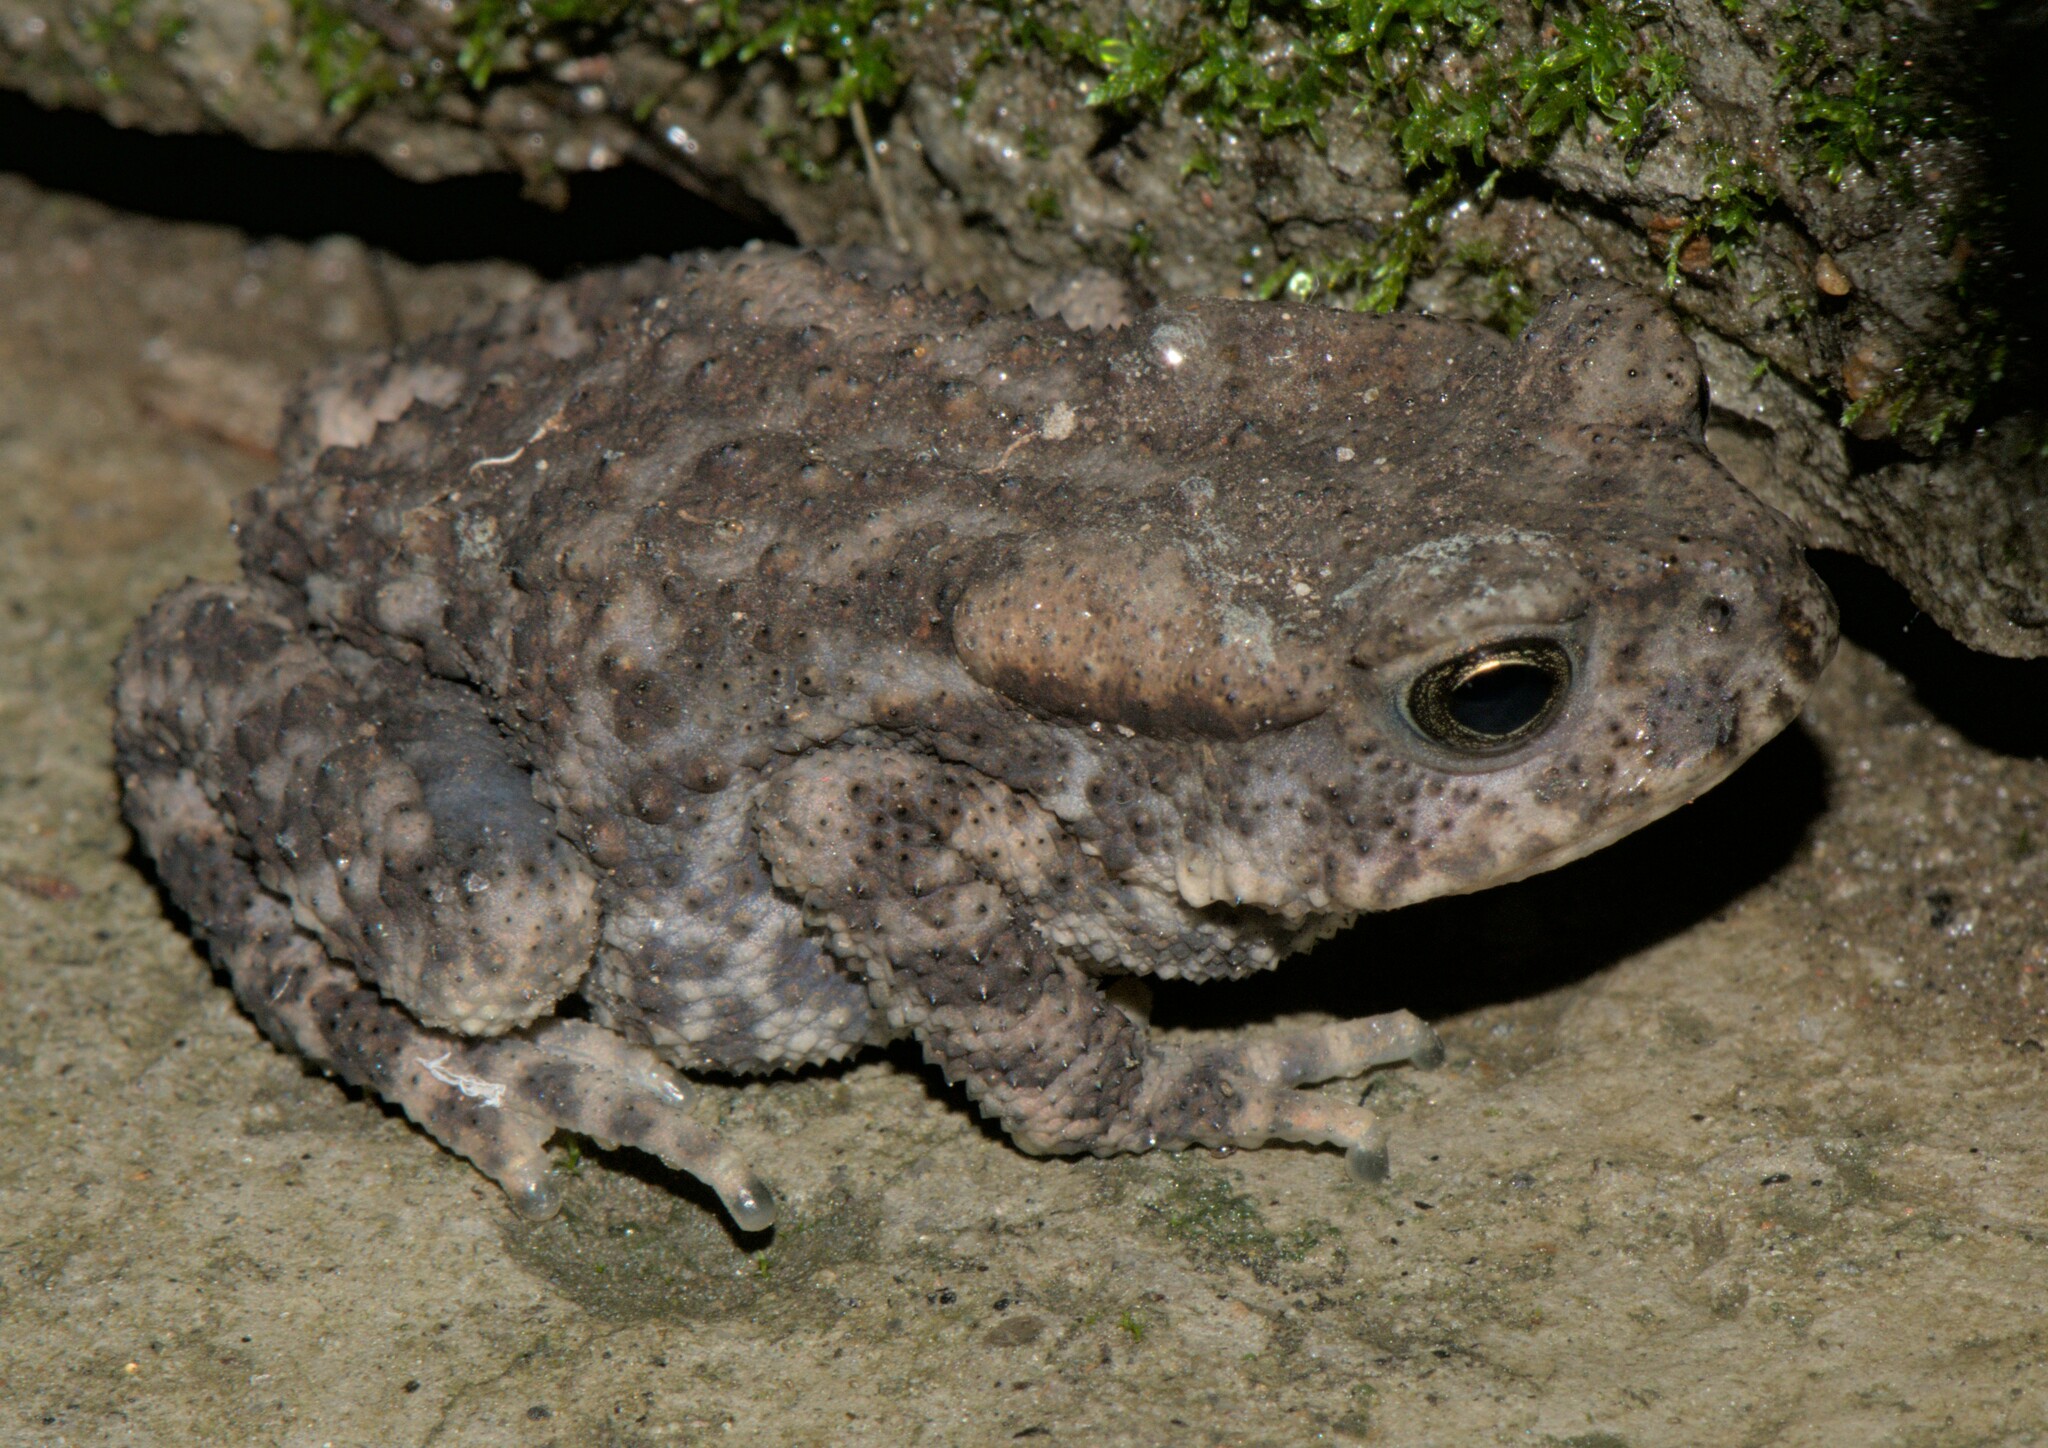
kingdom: Animalia
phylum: Chordata
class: Amphibia
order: Anura
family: Bufonidae
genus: Duttaphrynus
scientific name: Duttaphrynus himalayanus
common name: Günther's high altitude toad
